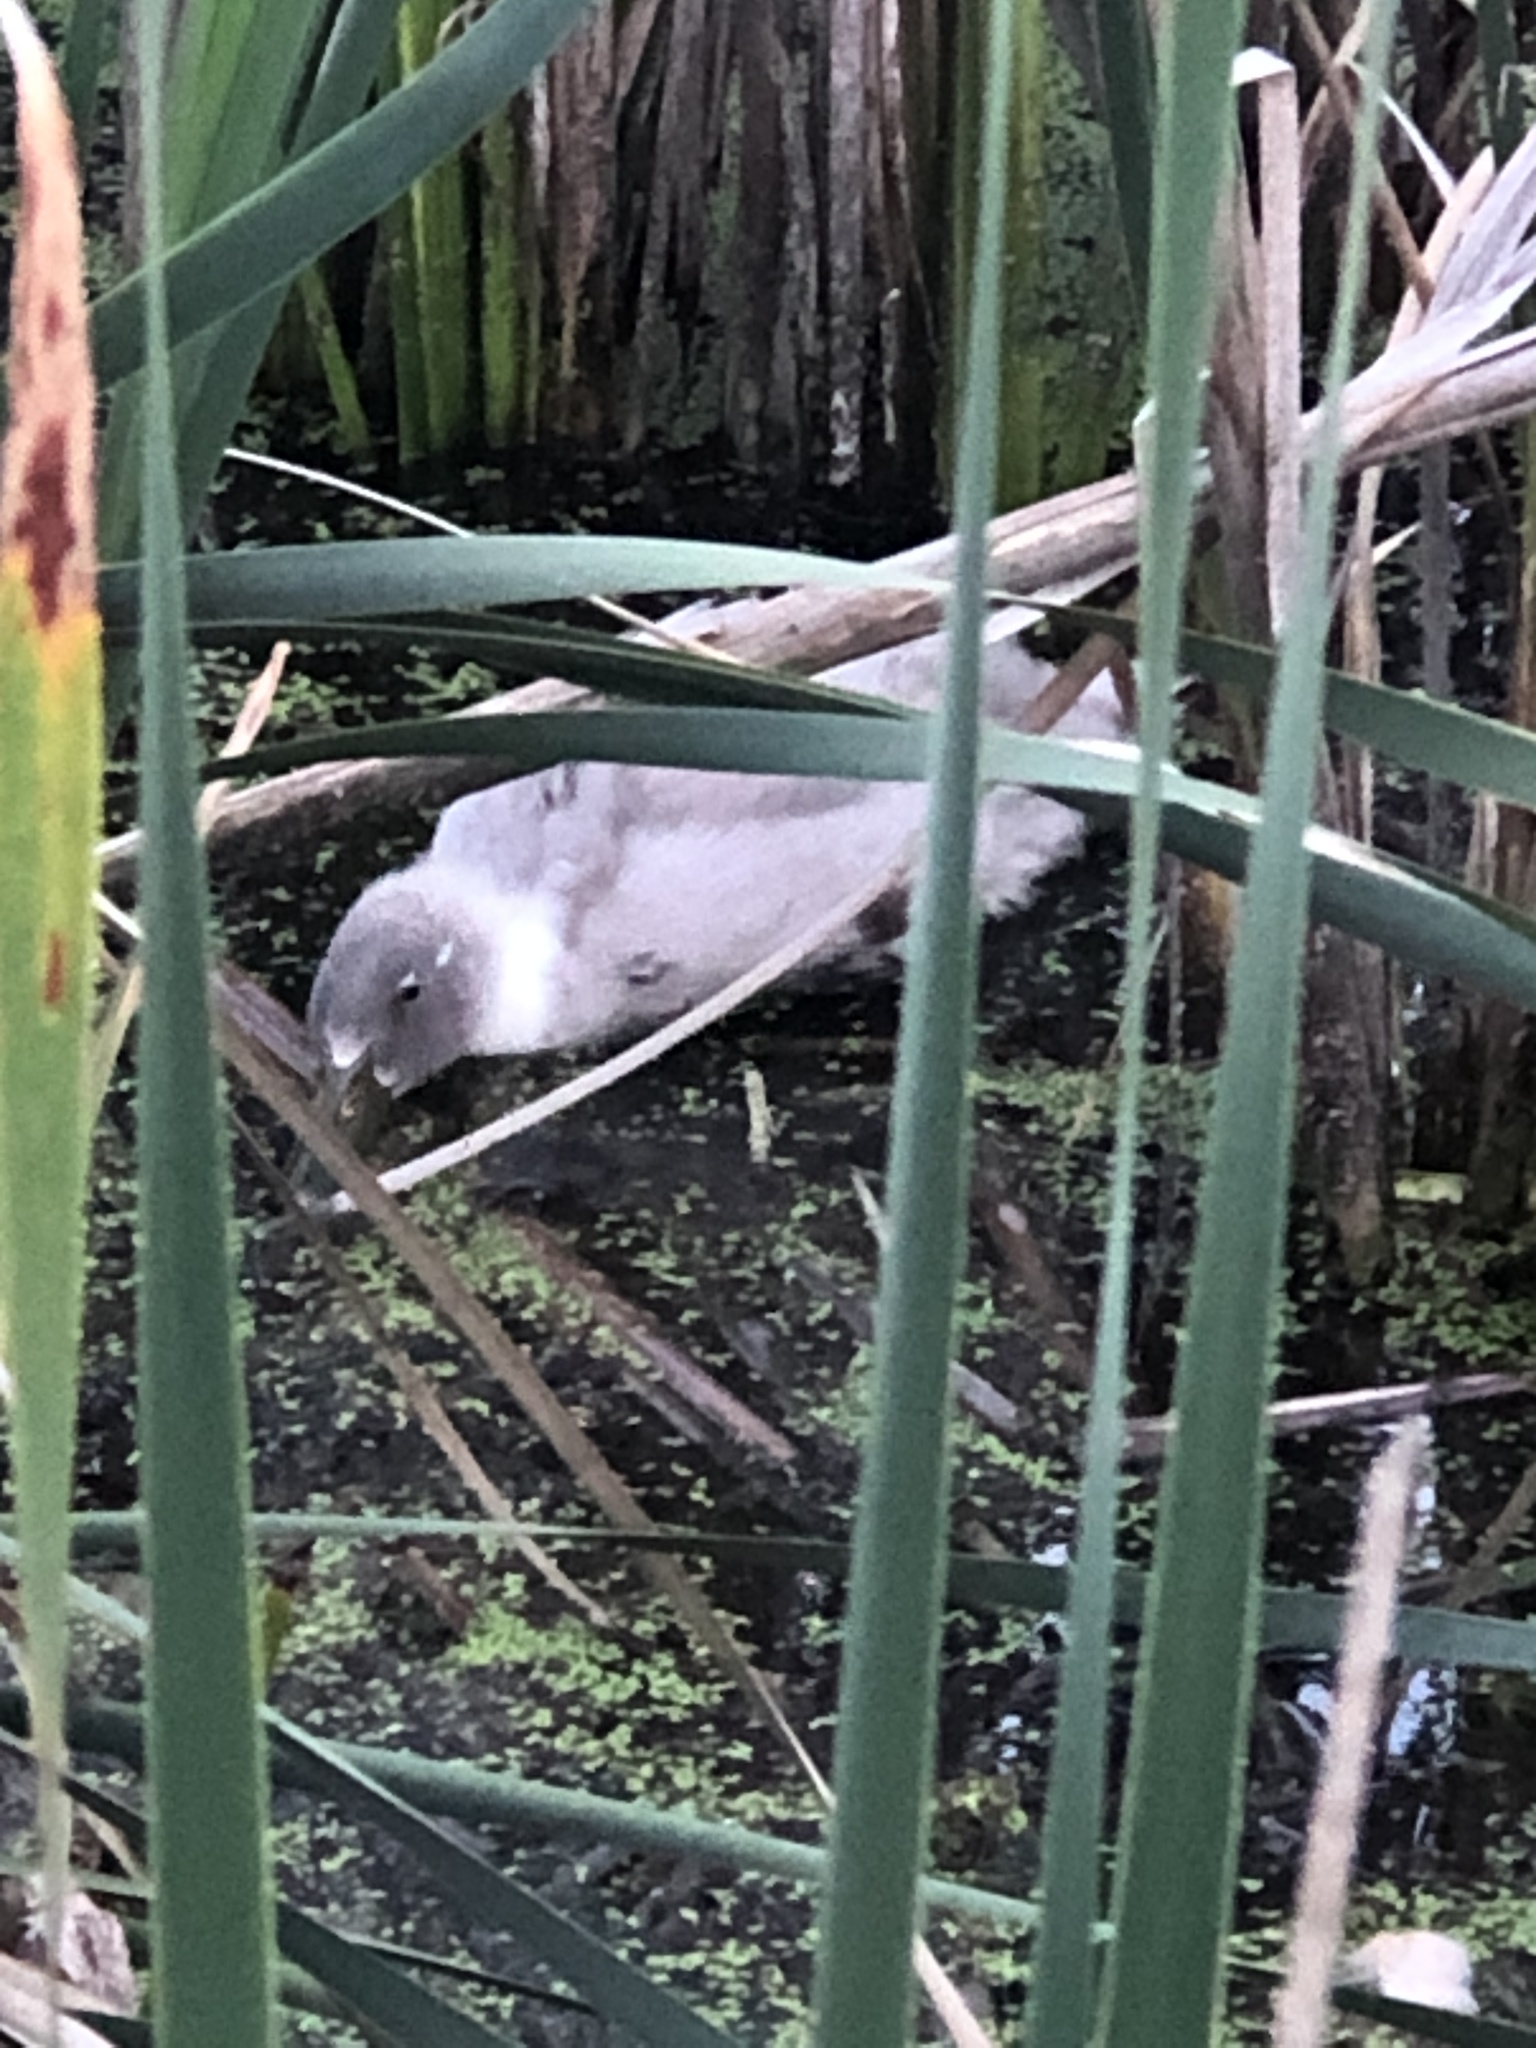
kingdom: Animalia
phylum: Chordata
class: Aves
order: Anseriformes
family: Anatidae
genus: Anas
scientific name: Anas platyrhynchos
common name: Mallard
